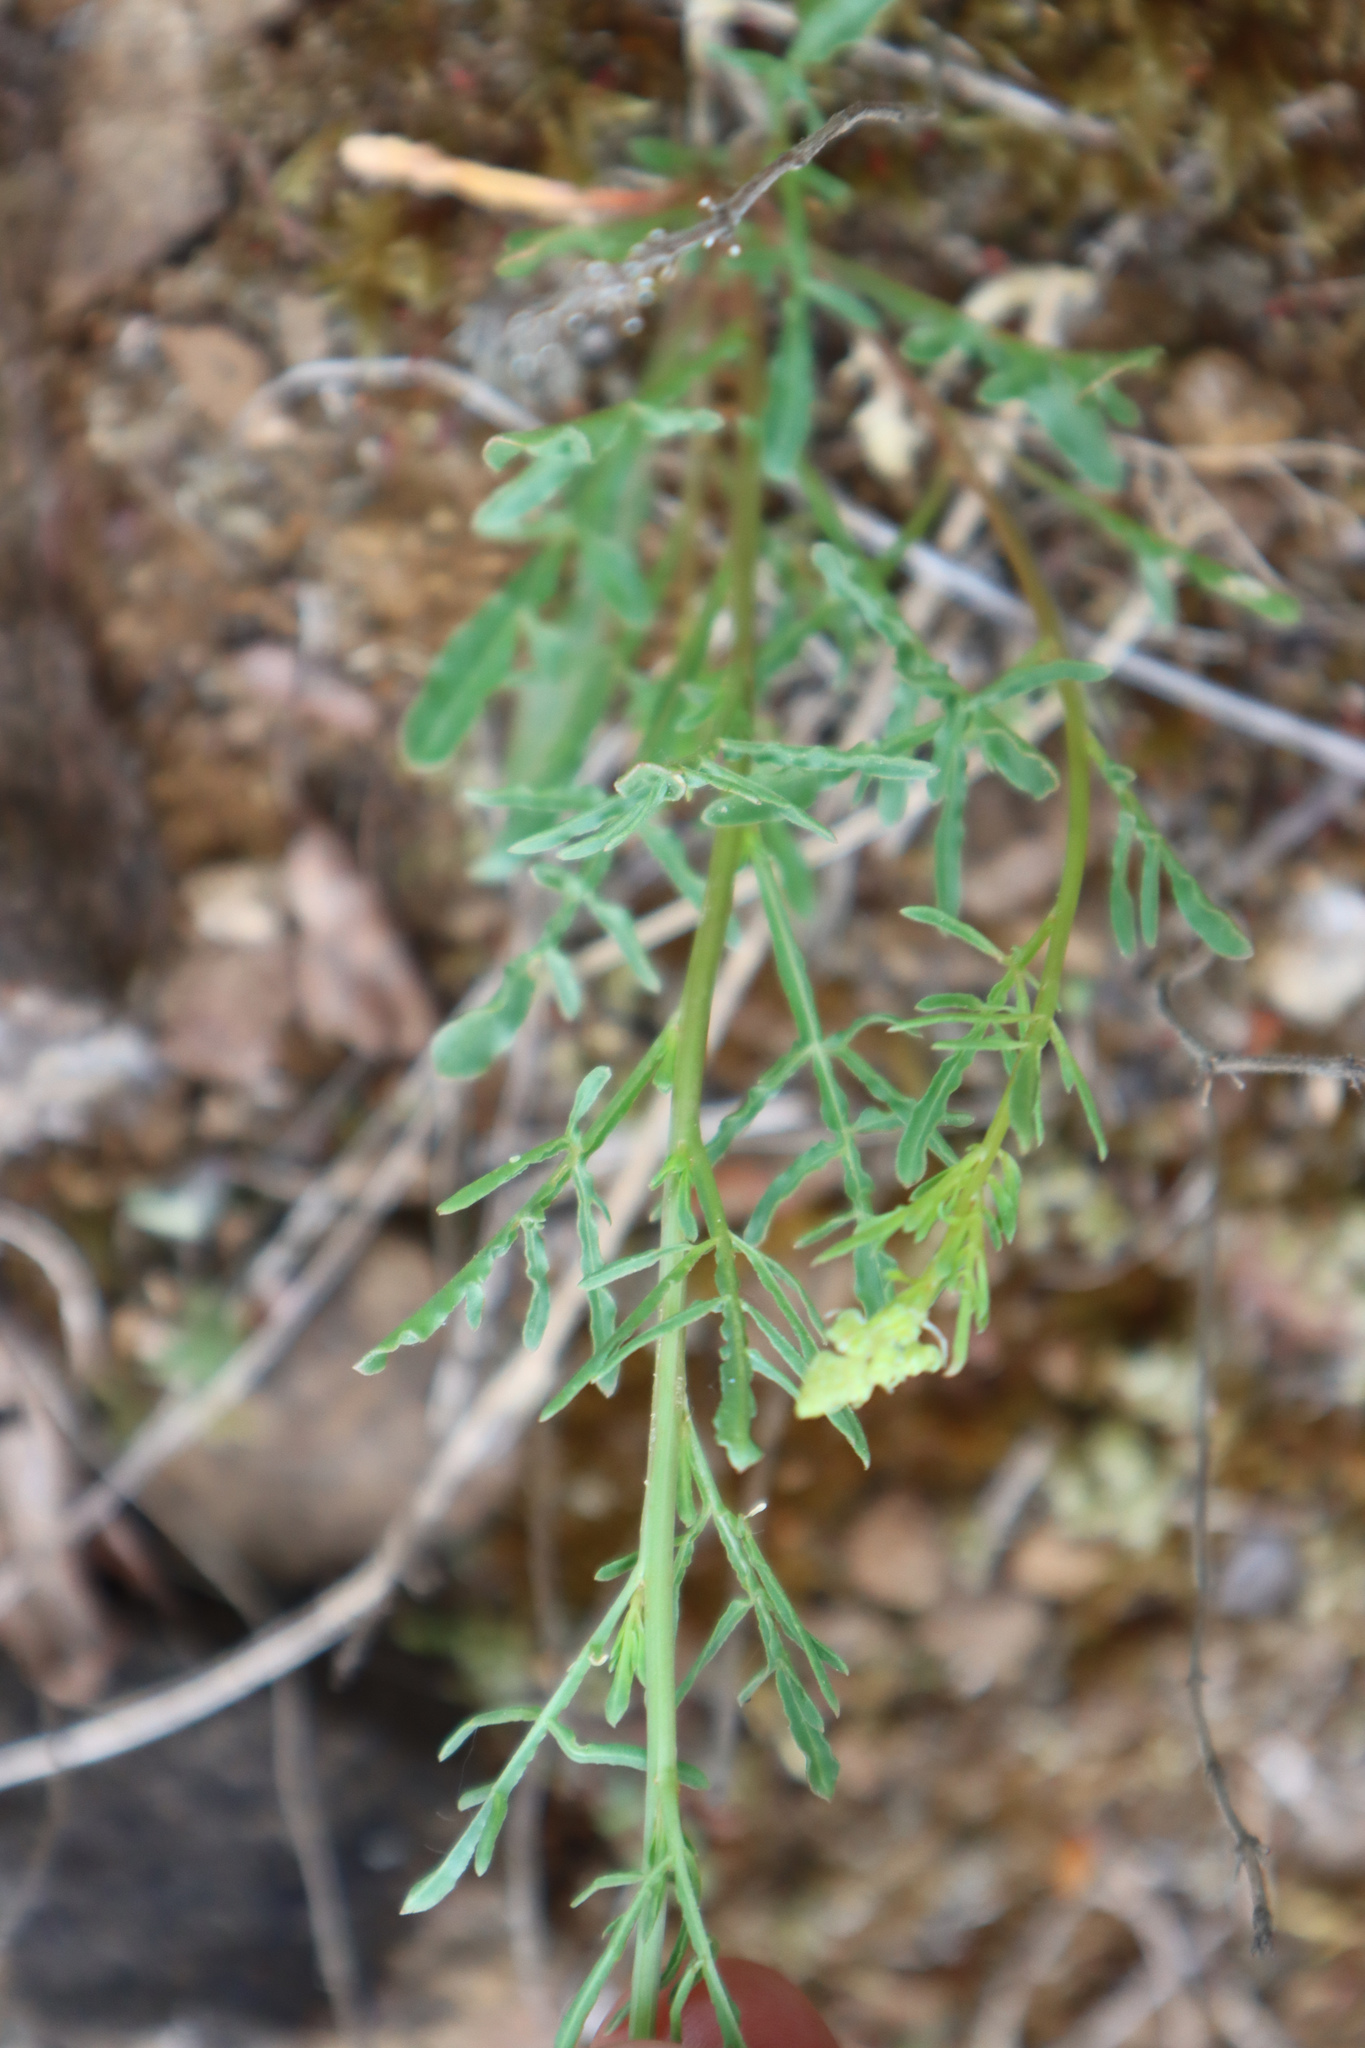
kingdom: Plantae
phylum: Tracheophyta
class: Magnoliopsida
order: Brassicales
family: Resedaceae
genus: Reseda
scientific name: Reseda lutea
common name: Wild mignonette
